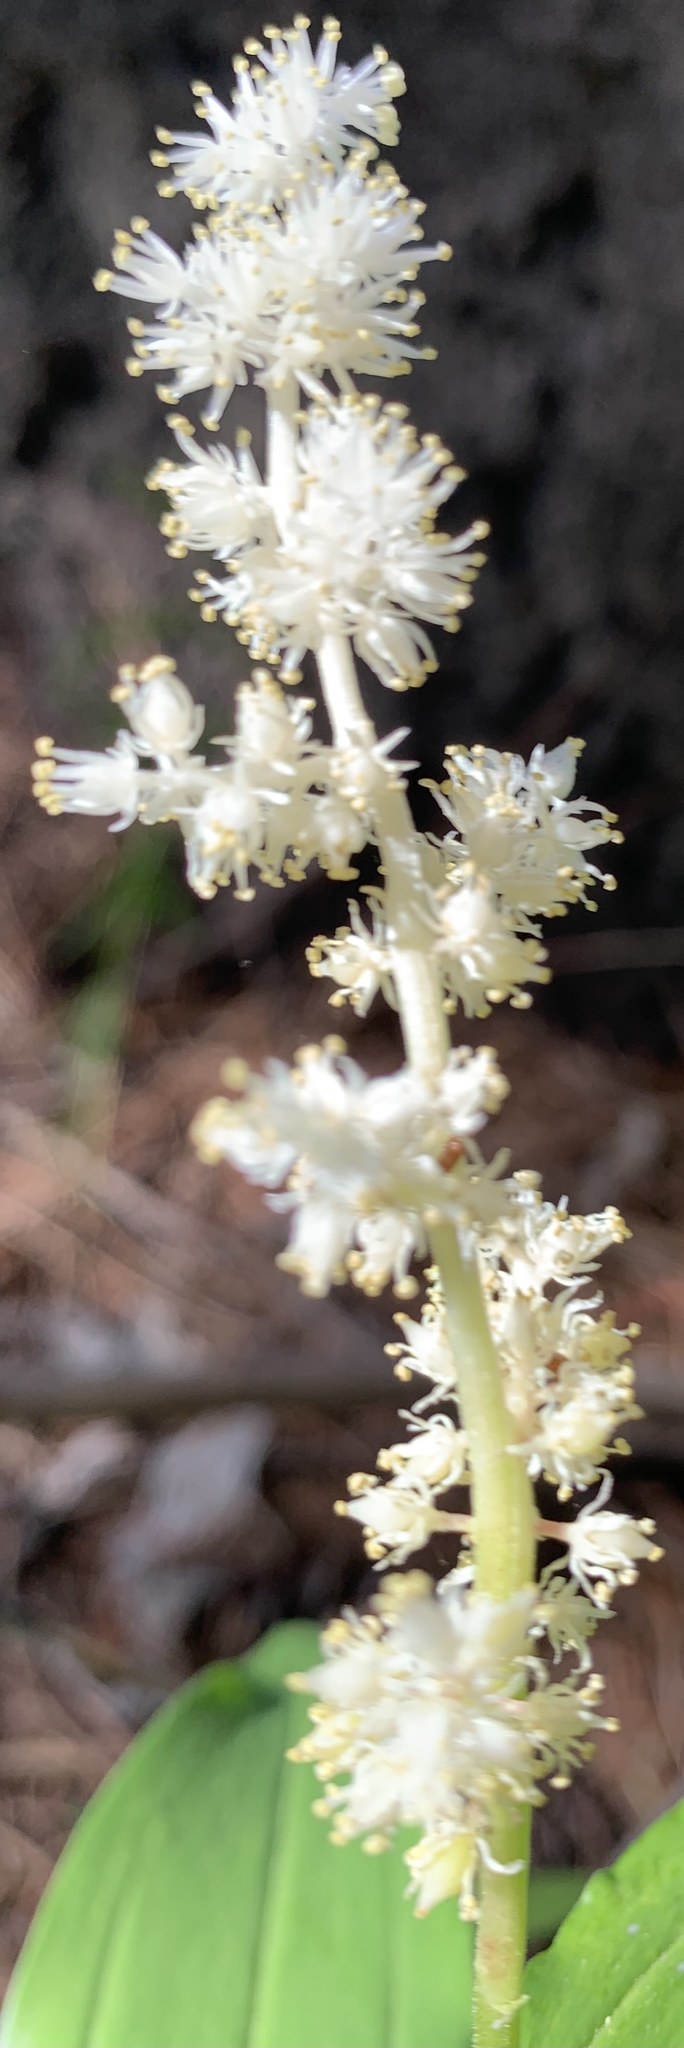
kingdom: Plantae
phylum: Tracheophyta
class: Liliopsida
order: Asparagales
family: Asparagaceae
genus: Maianthemum
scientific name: Maianthemum racemosum
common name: False spikenard
